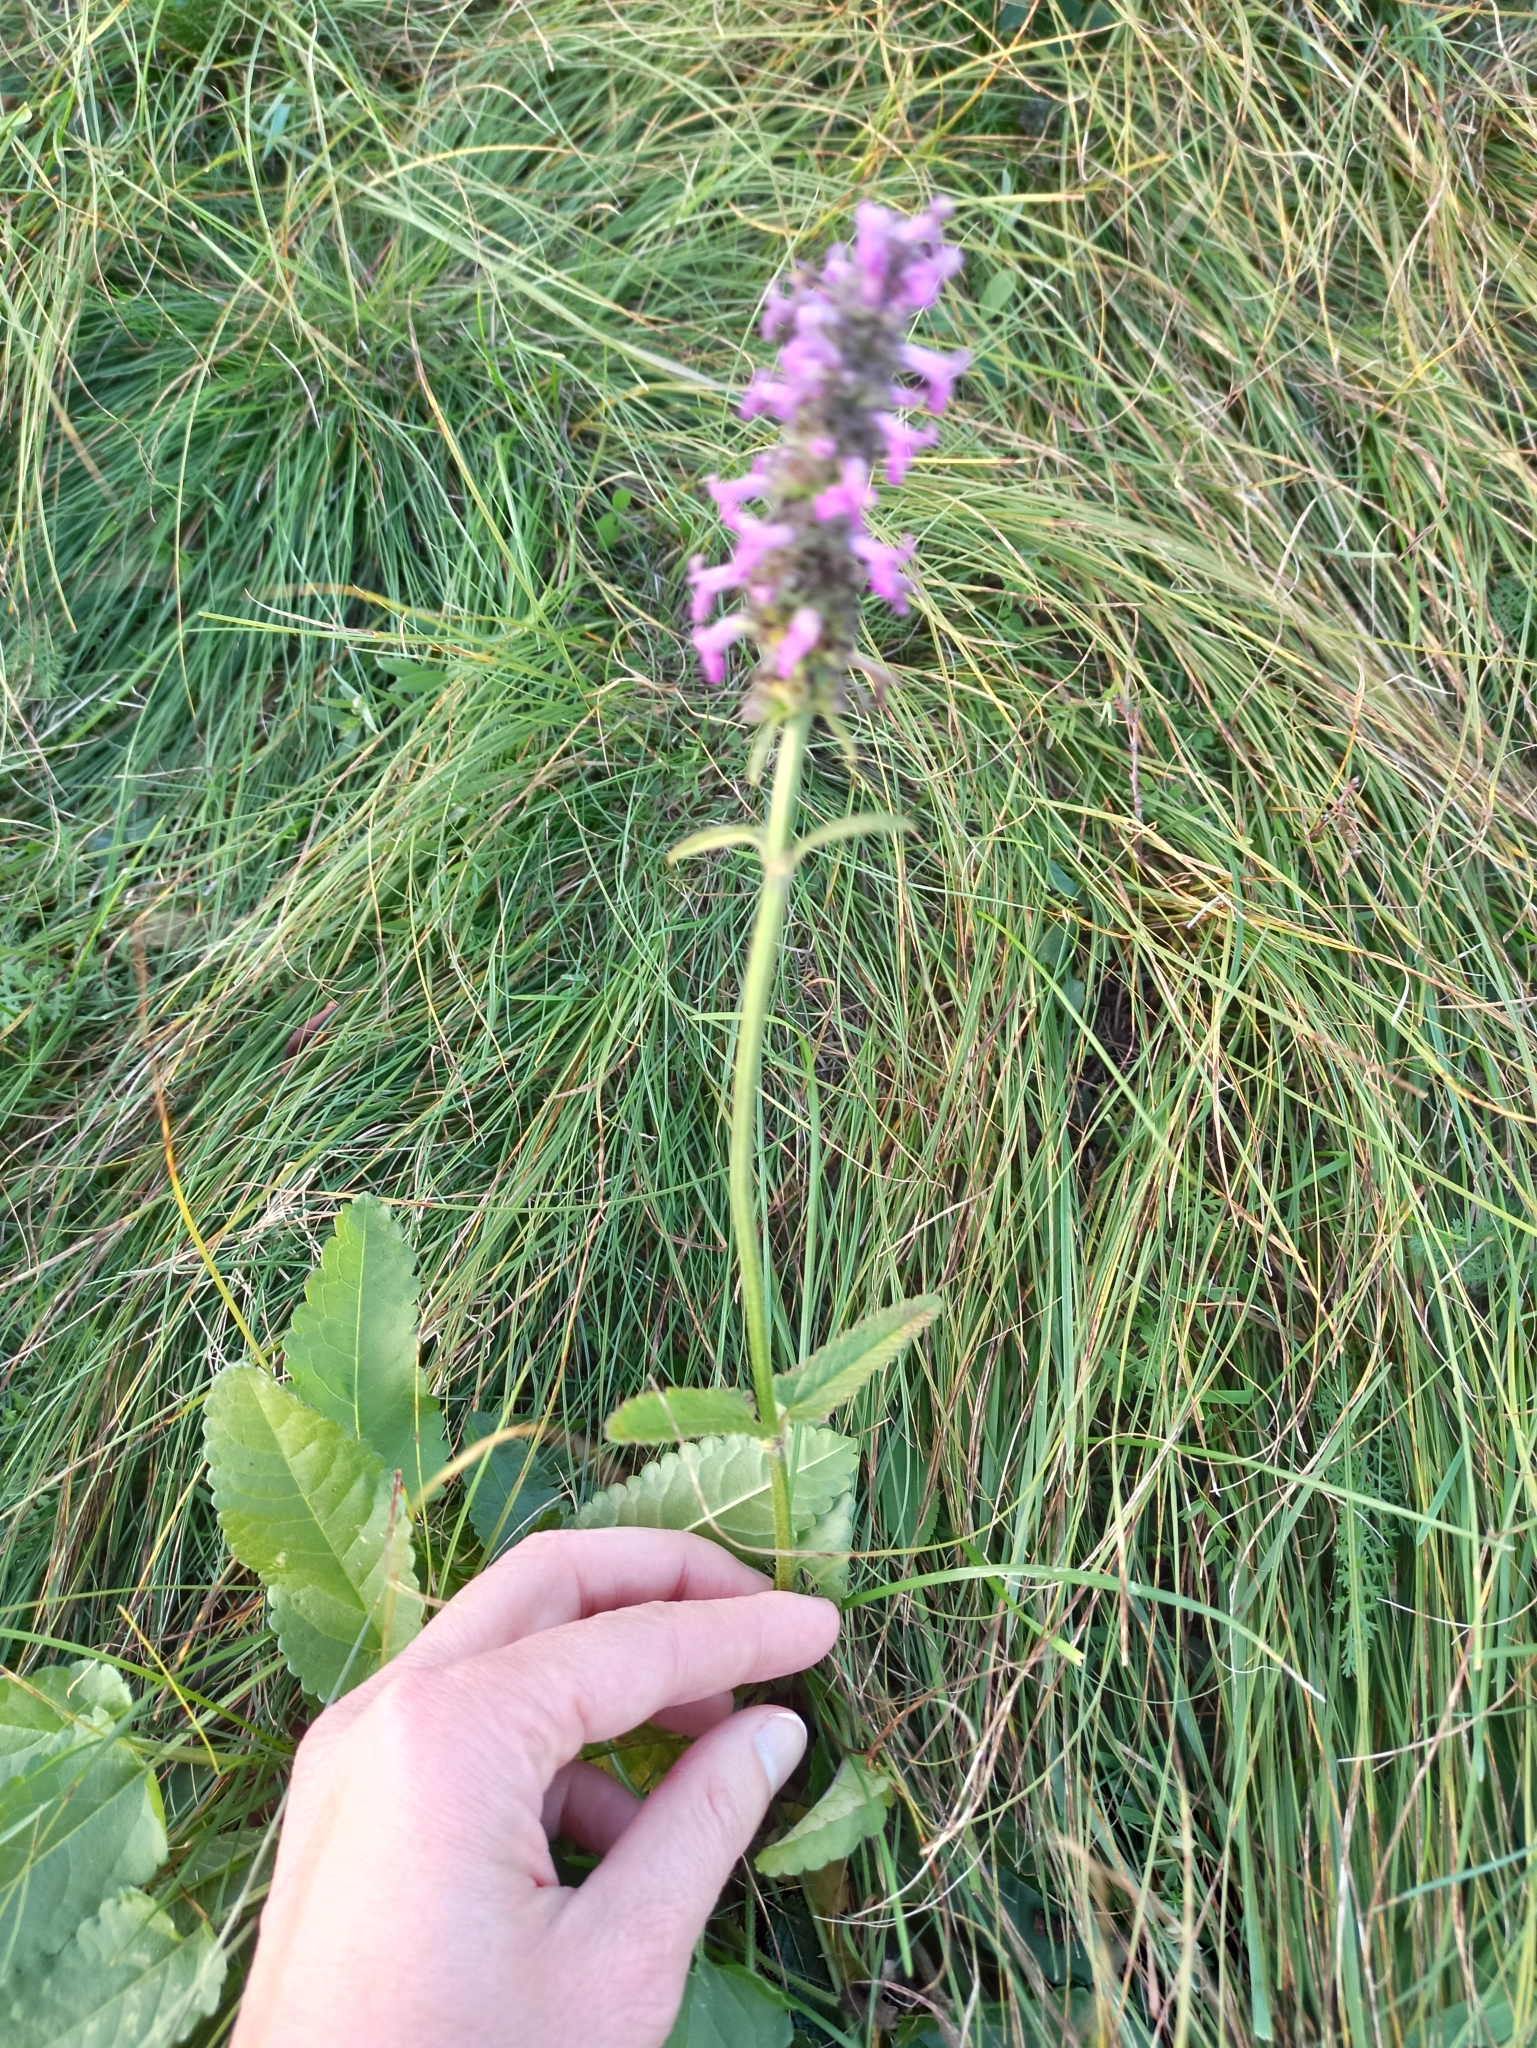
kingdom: Plantae
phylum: Tracheophyta
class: Magnoliopsida
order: Lamiales
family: Lamiaceae
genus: Betonica
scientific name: Betonica officinalis
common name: Bishop's-wort
